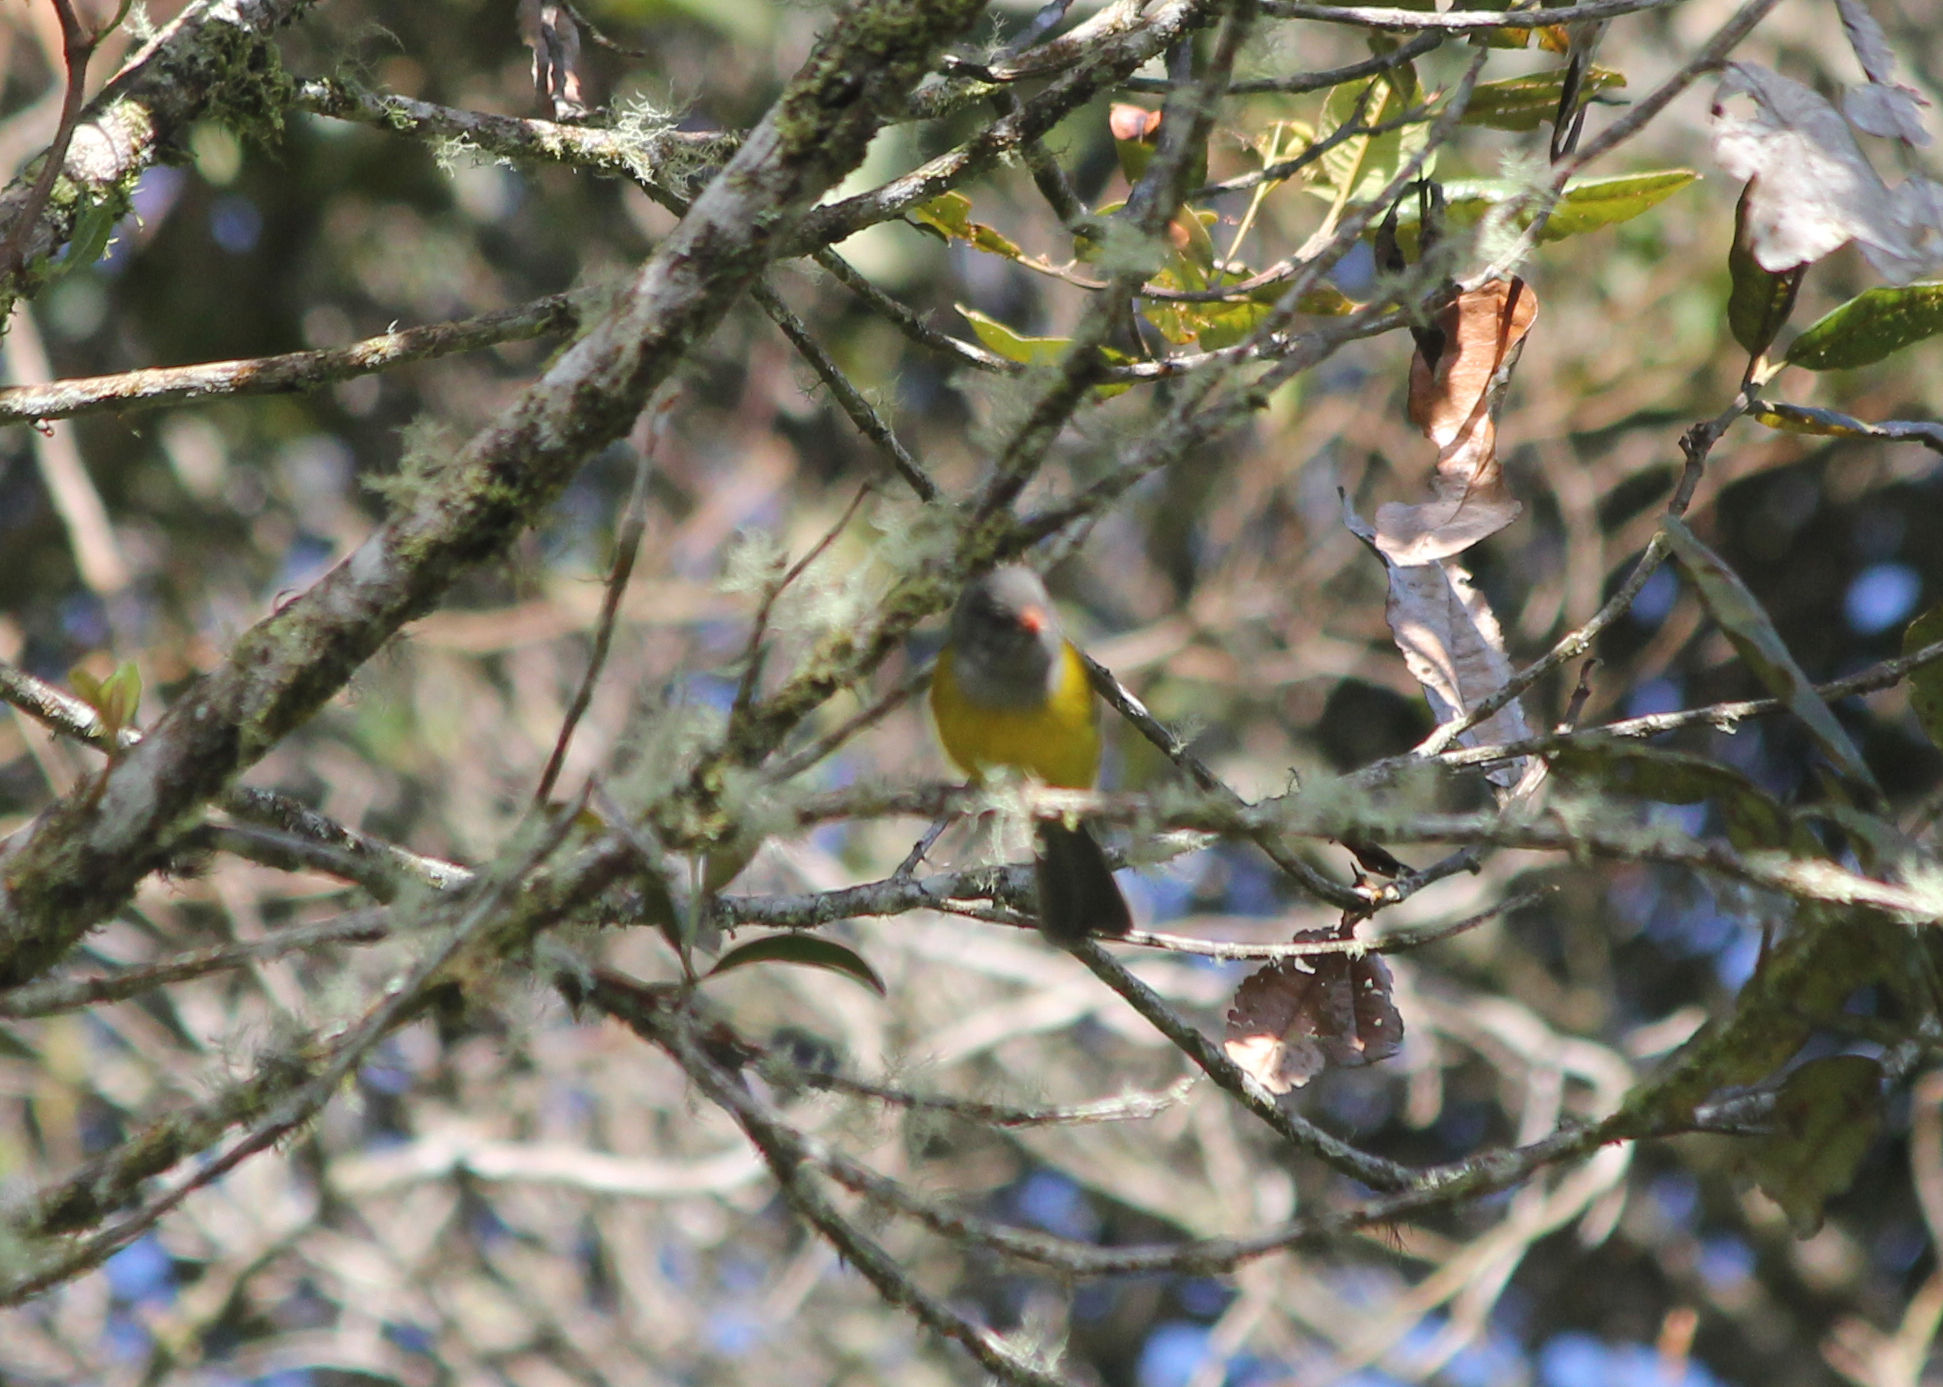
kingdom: Animalia
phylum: Chordata
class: Aves
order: Passeriformes
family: Thraupidae
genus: Cnemoscopus
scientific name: Cnemoscopus rubrirostris
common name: Grey-hooded bush tanager
